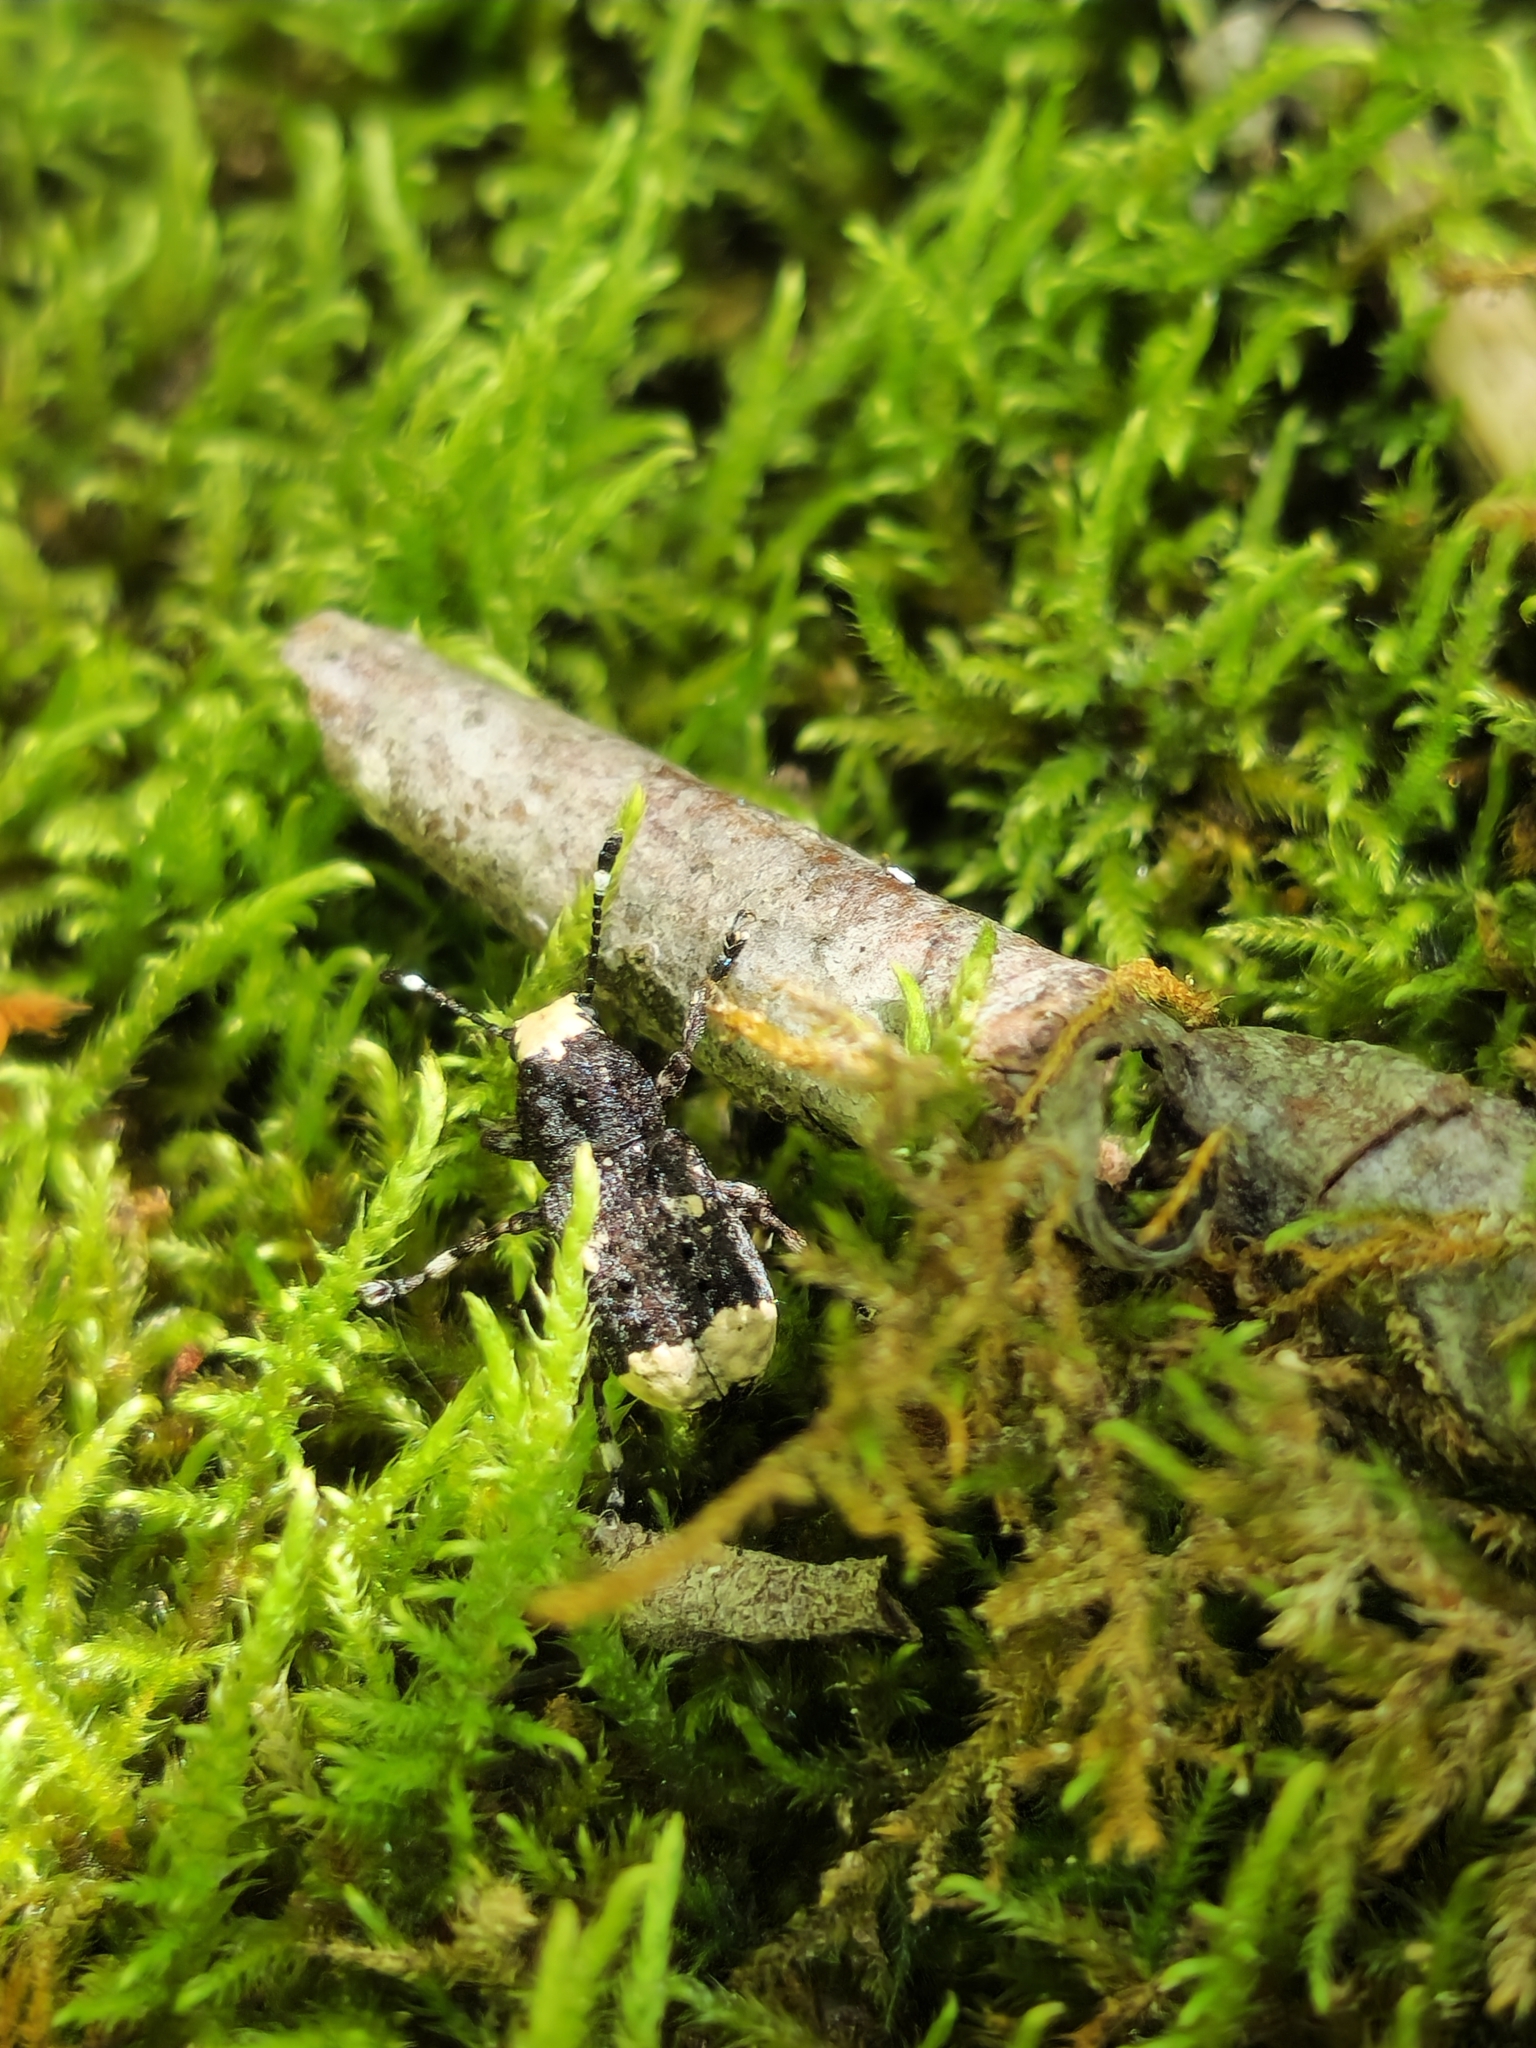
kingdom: Animalia
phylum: Arthropoda
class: Insecta
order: Coleoptera
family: Anthribidae
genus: Platystomos
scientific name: Platystomos albinus
